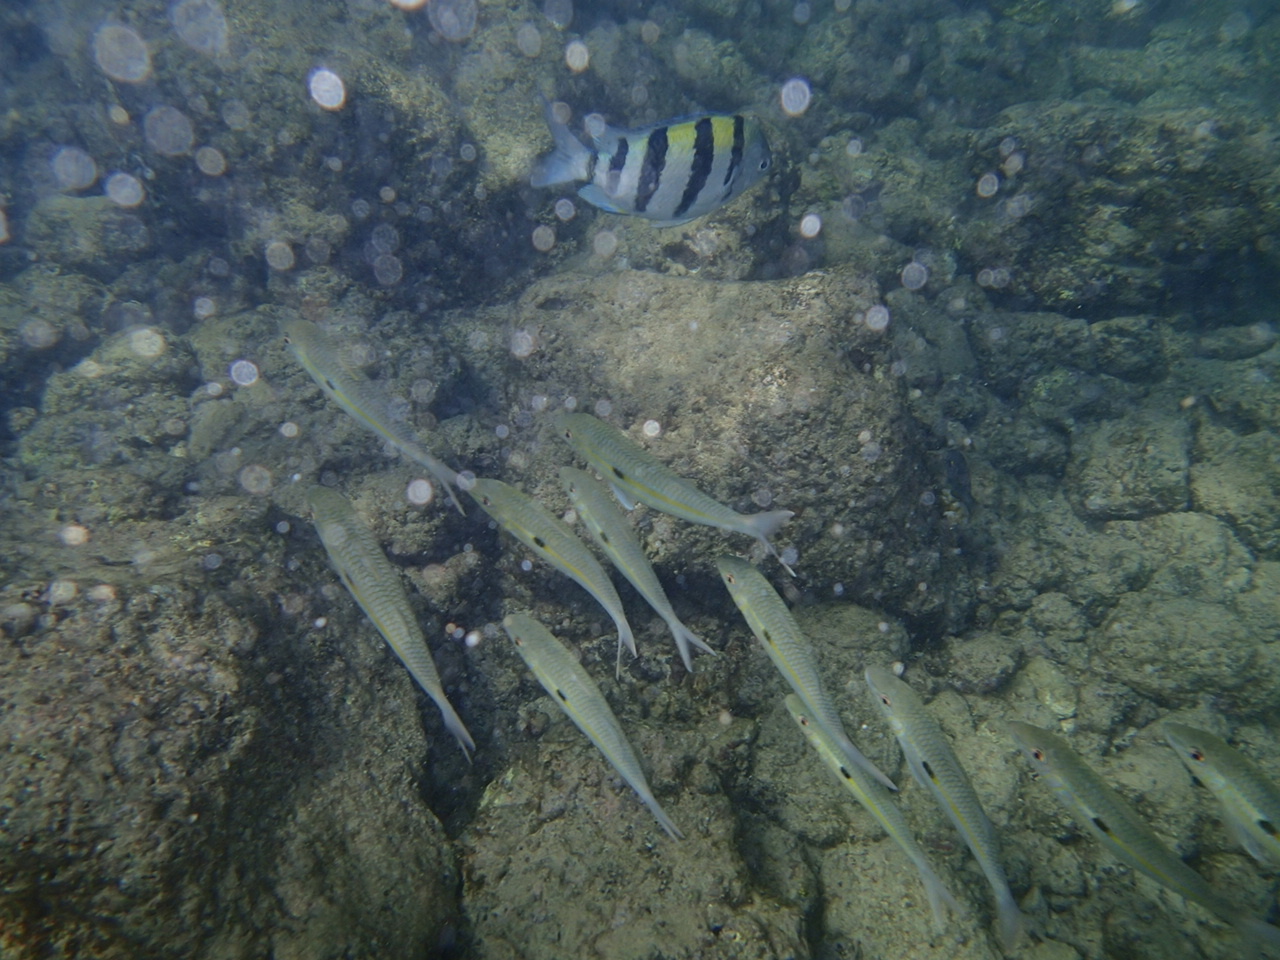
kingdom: Animalia
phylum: Chordata
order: Perciformes
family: Pomacentridae
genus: Abudefduf
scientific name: Abudefduf vaigiensis
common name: Indo-pacific sergeant
